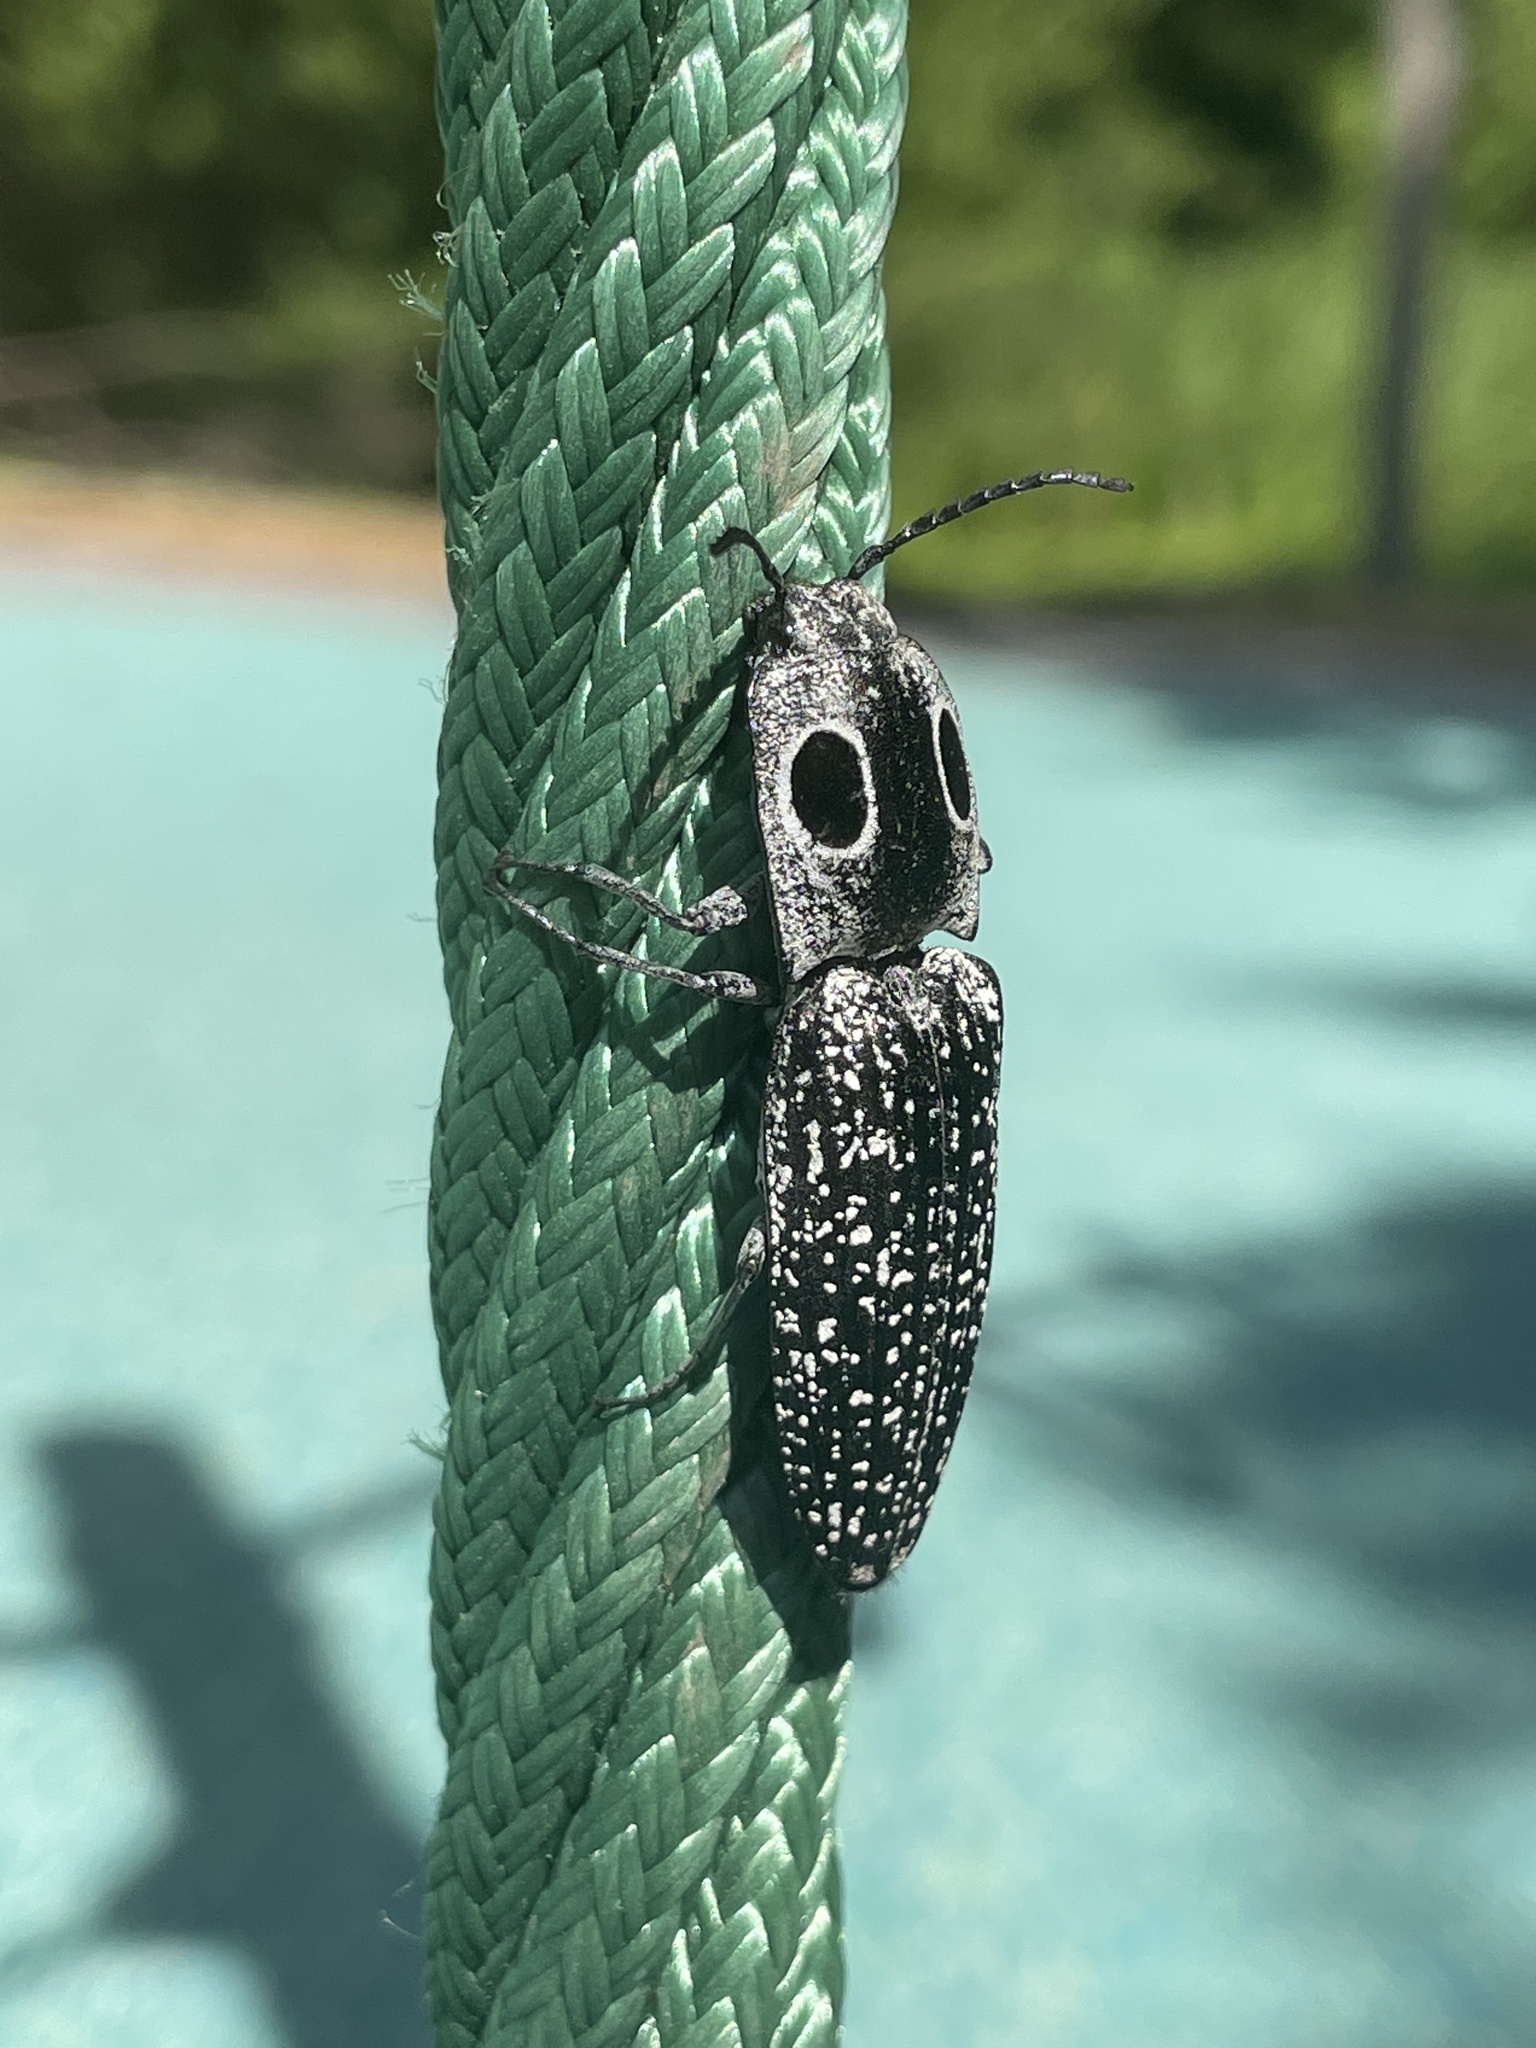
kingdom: Animalia
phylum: Arthropoda
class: Insecta
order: Coleoptera
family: Elateridae
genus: Alaus
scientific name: Alaus oculatus
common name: Eastern eyed click beetle
